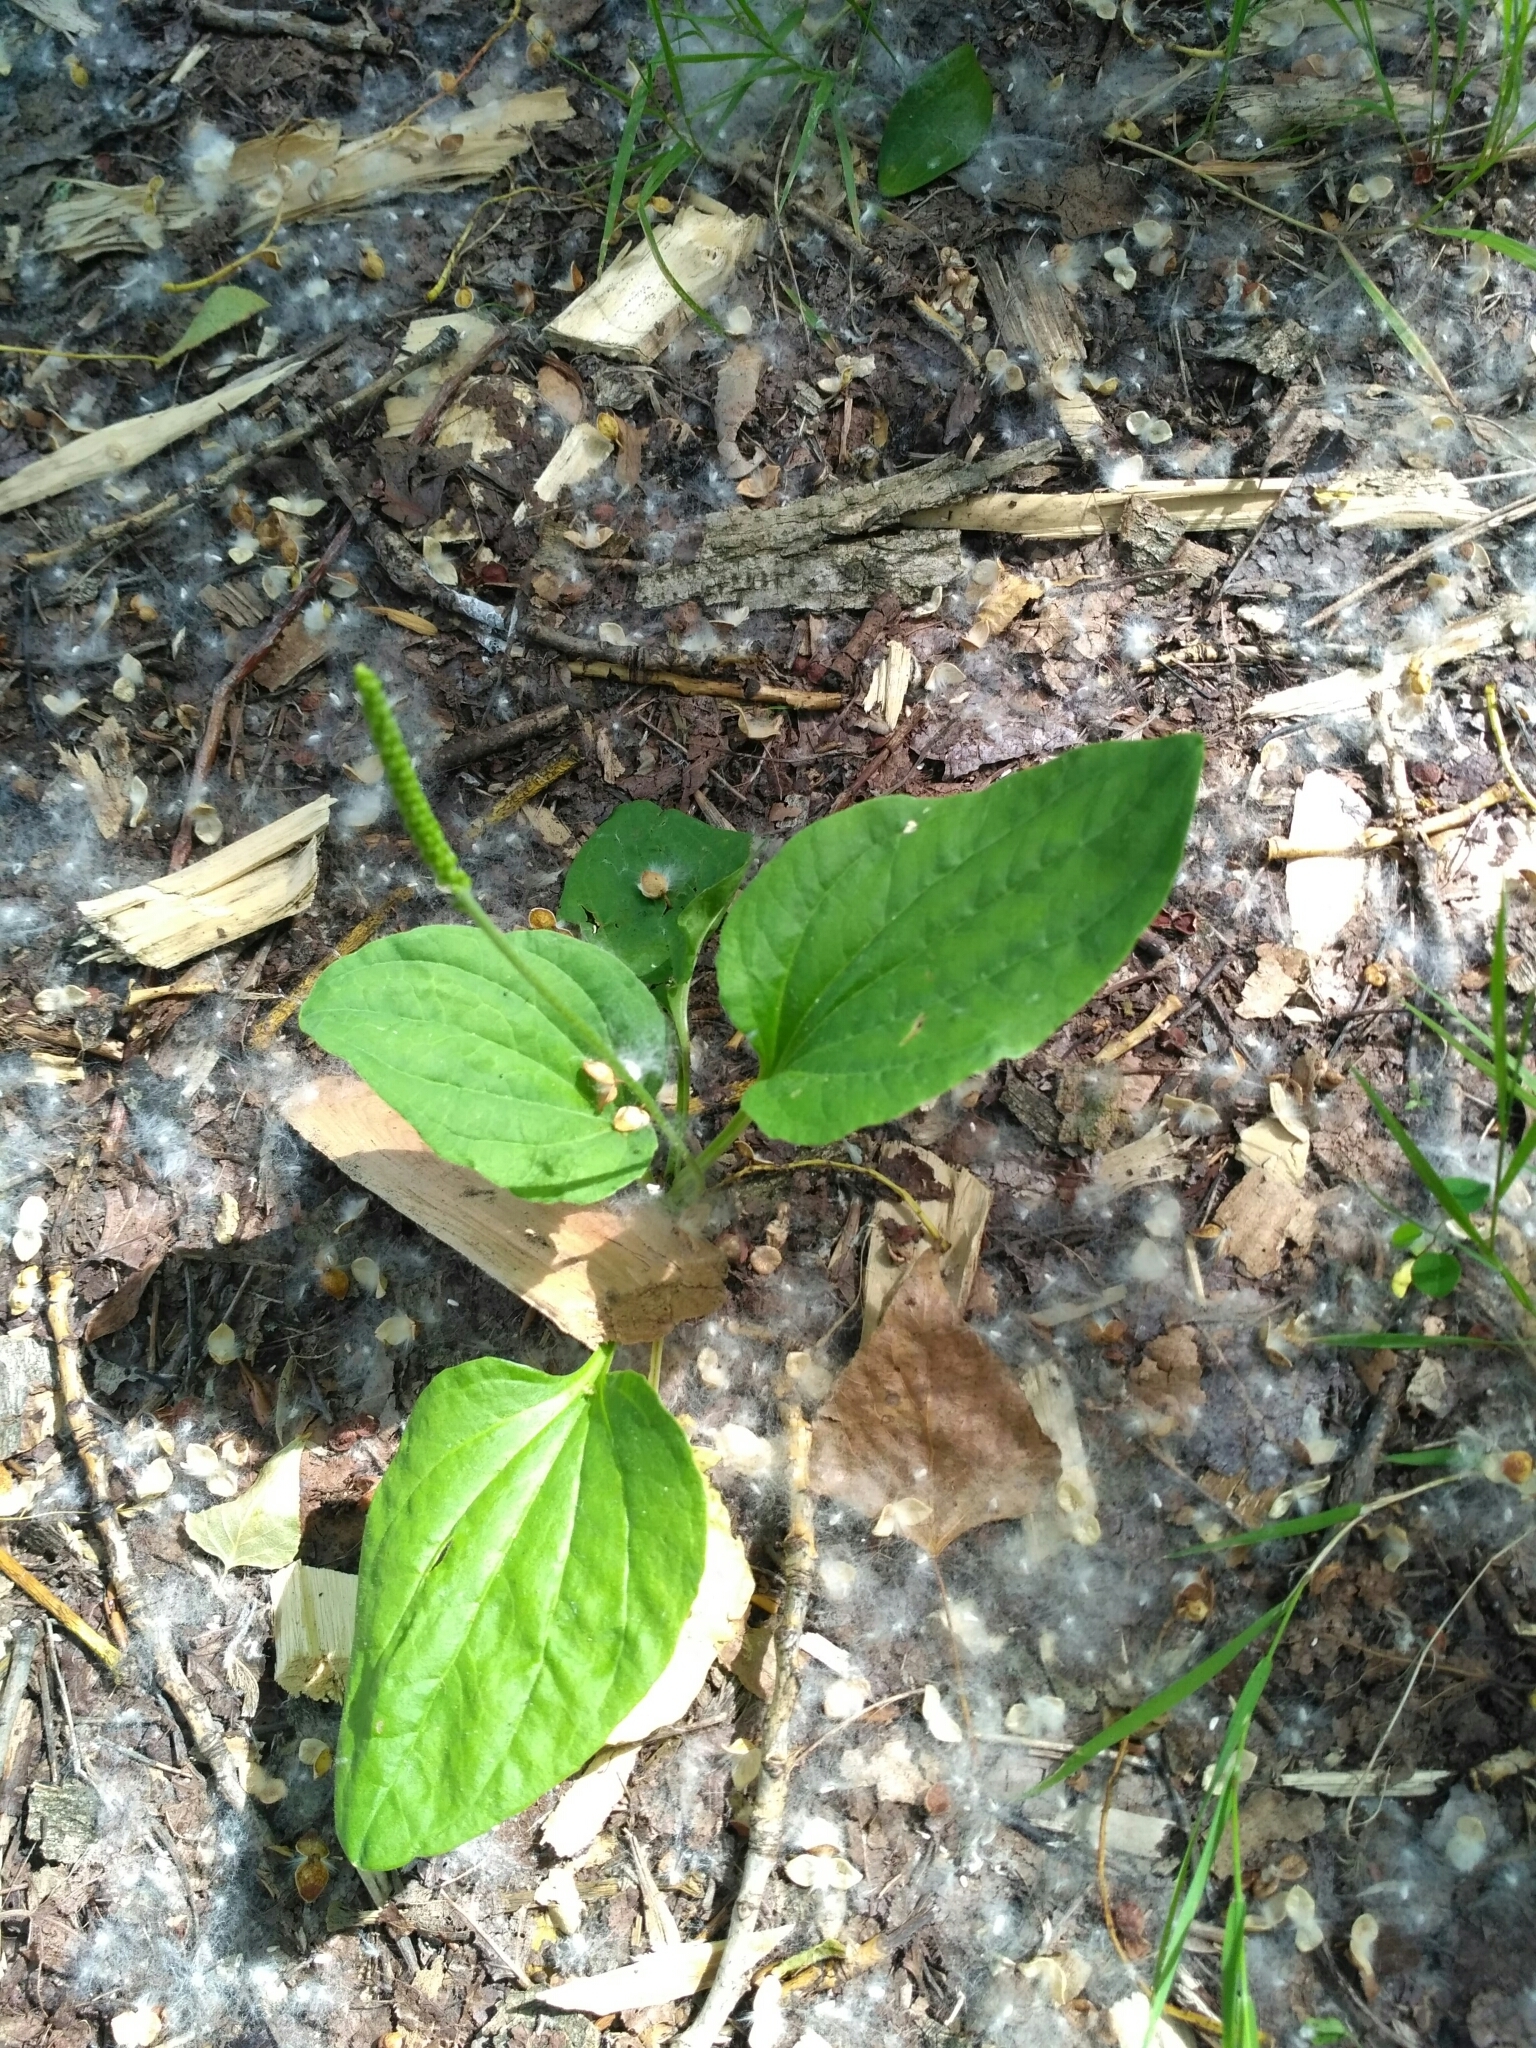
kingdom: Plantae
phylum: Tracheophyta
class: Magnoliopsida
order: Lamiales
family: Plantaginaceae
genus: Plantago
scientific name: Plantago major
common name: Common plantain
